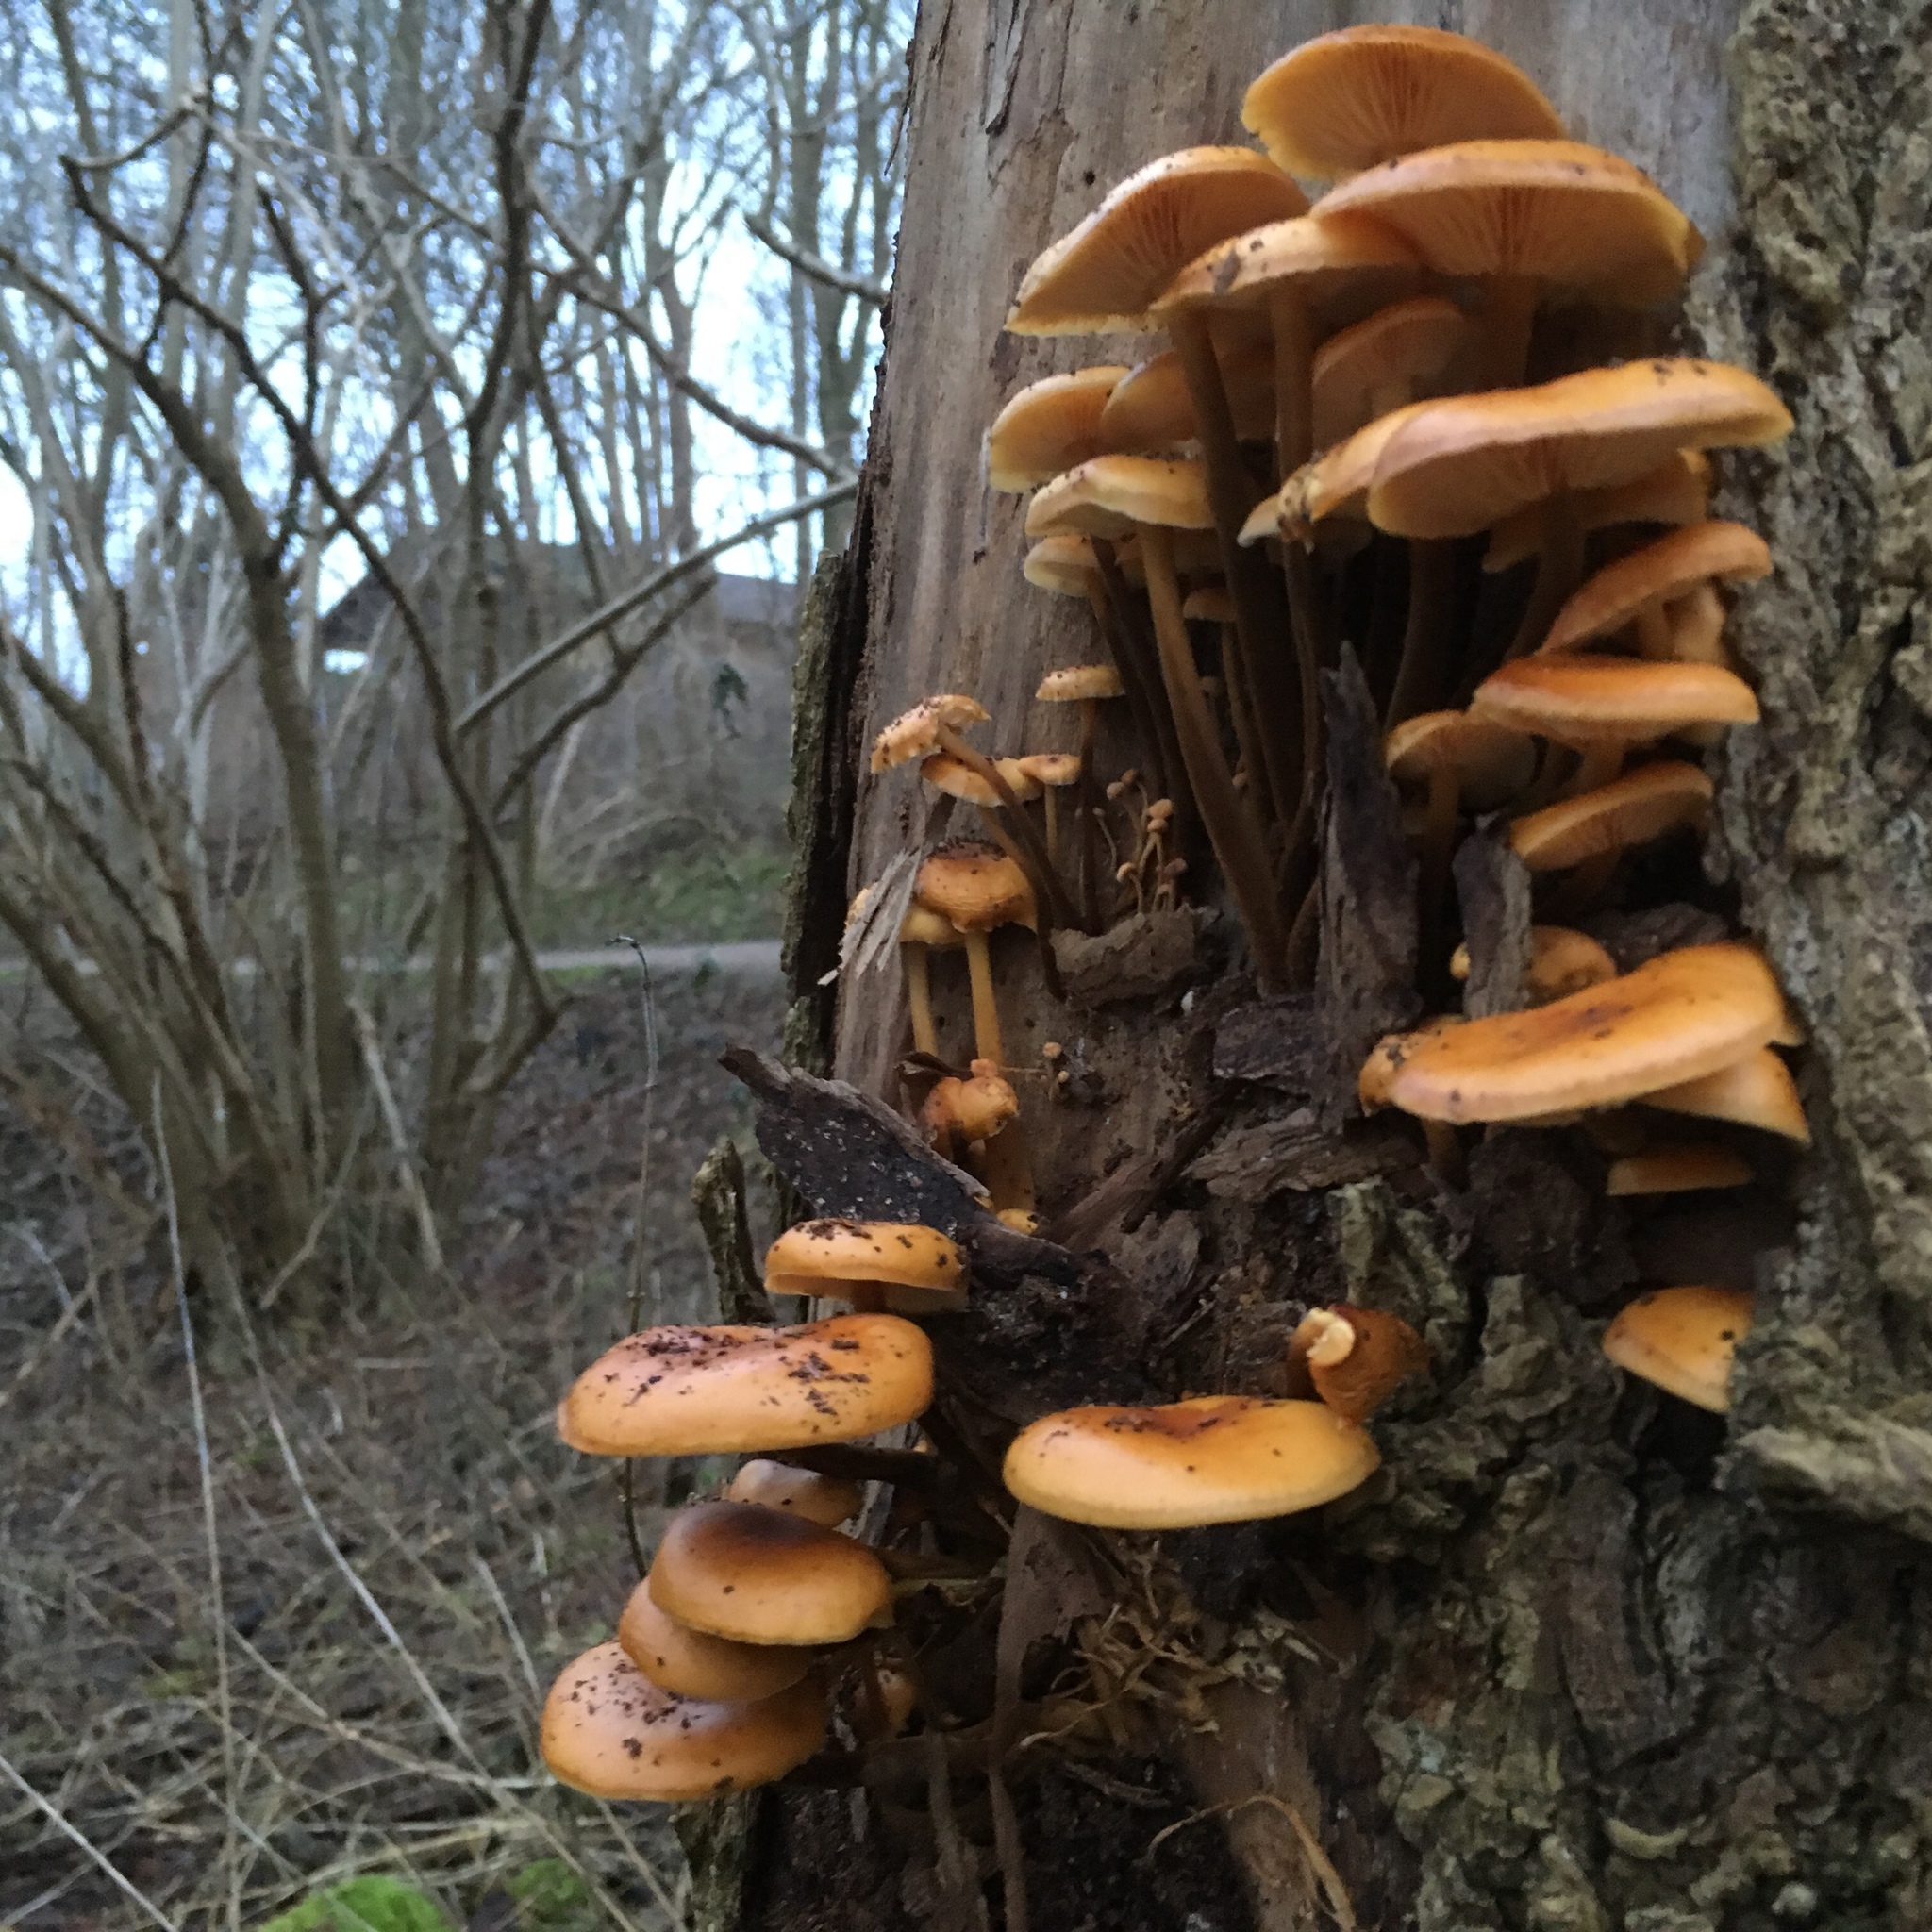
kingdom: Fungi
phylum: Basidiomycota
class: Agaricomycetes
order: Agaricales
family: Physalacriaceae
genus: Flammulina
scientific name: Flammulina
